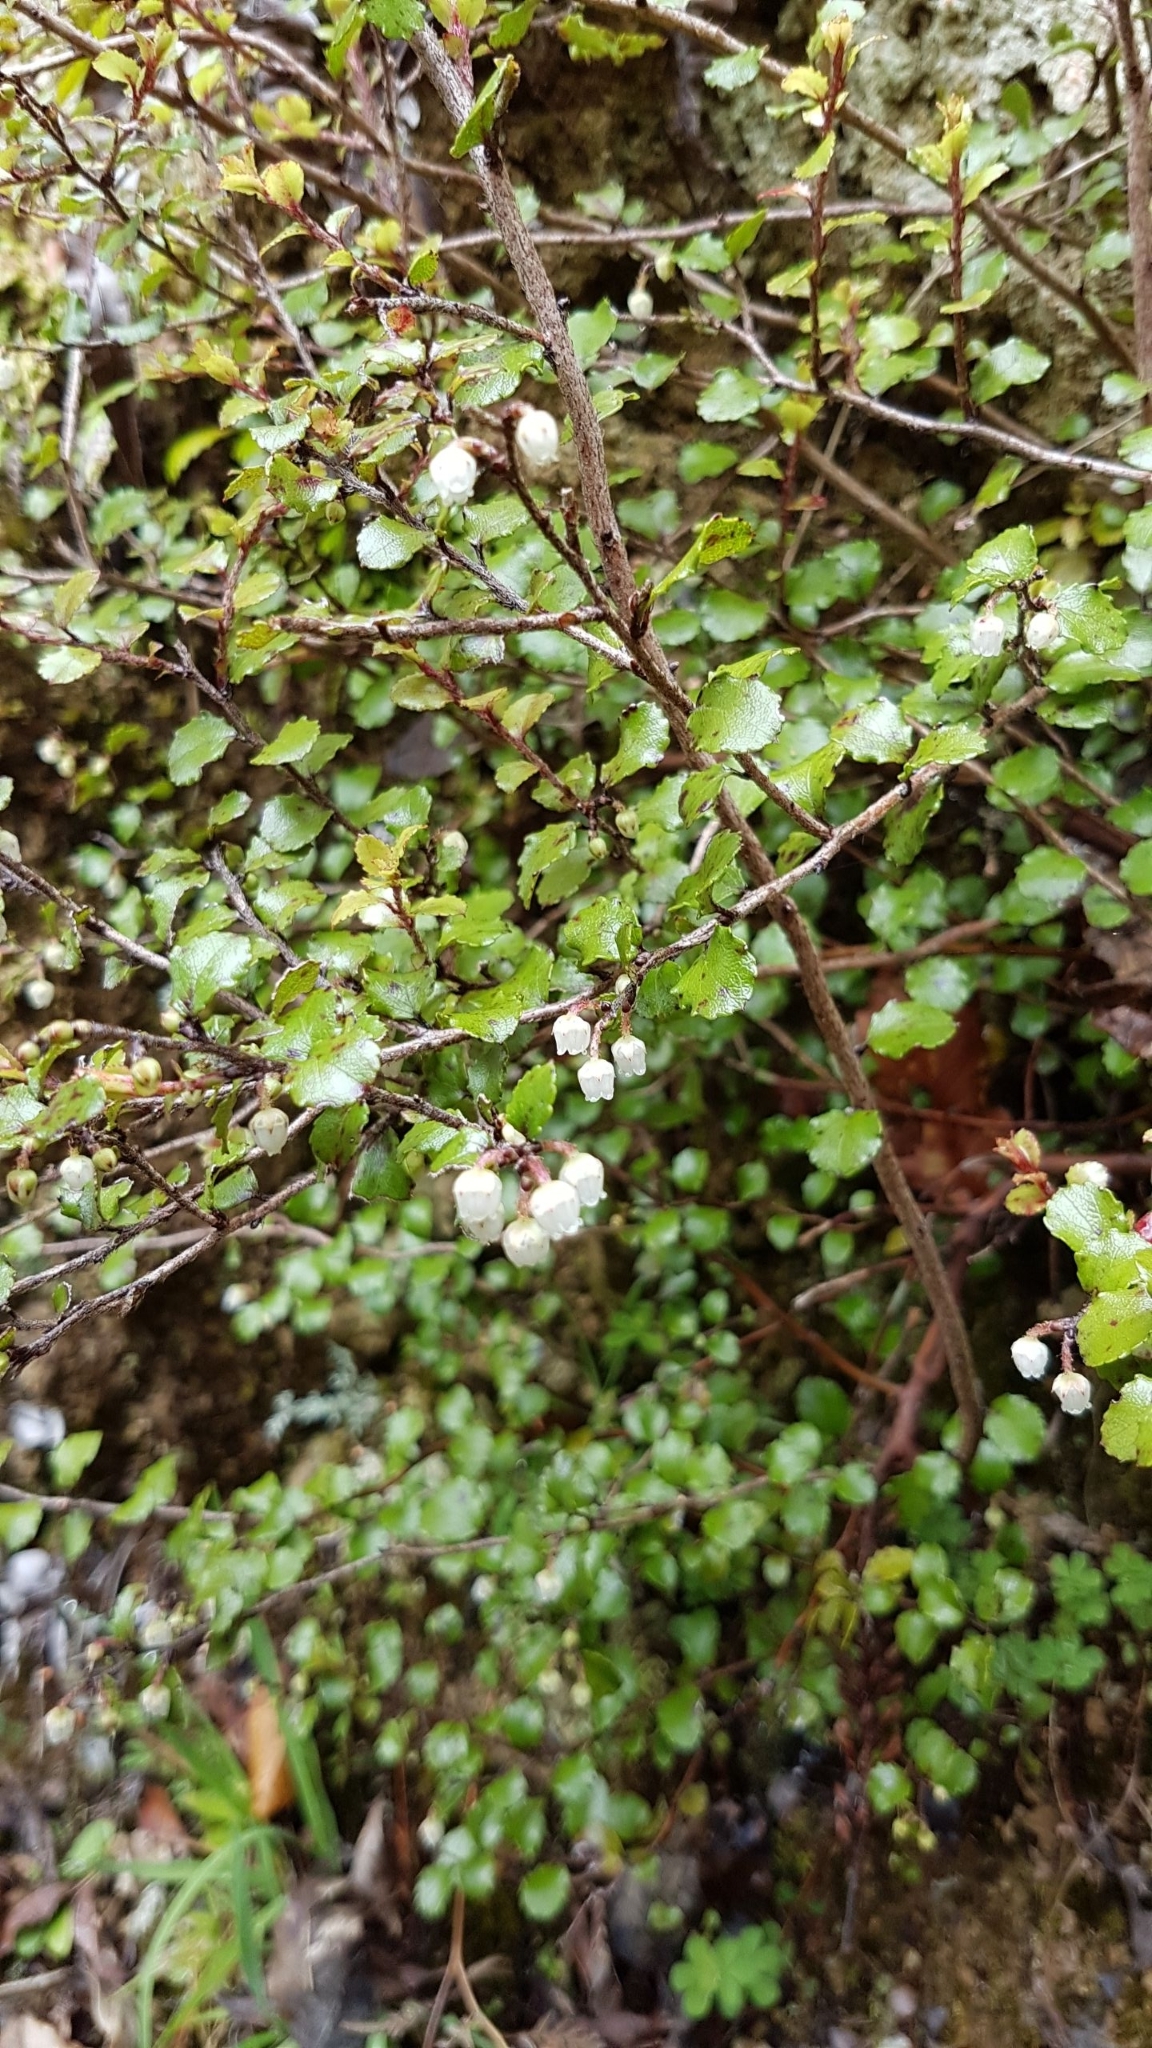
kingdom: Plantae
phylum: Tracheophyta
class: Magnoliopsida
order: Ericales
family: Ericaceae
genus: Gaultheria
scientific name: Gaultheria antipoda
